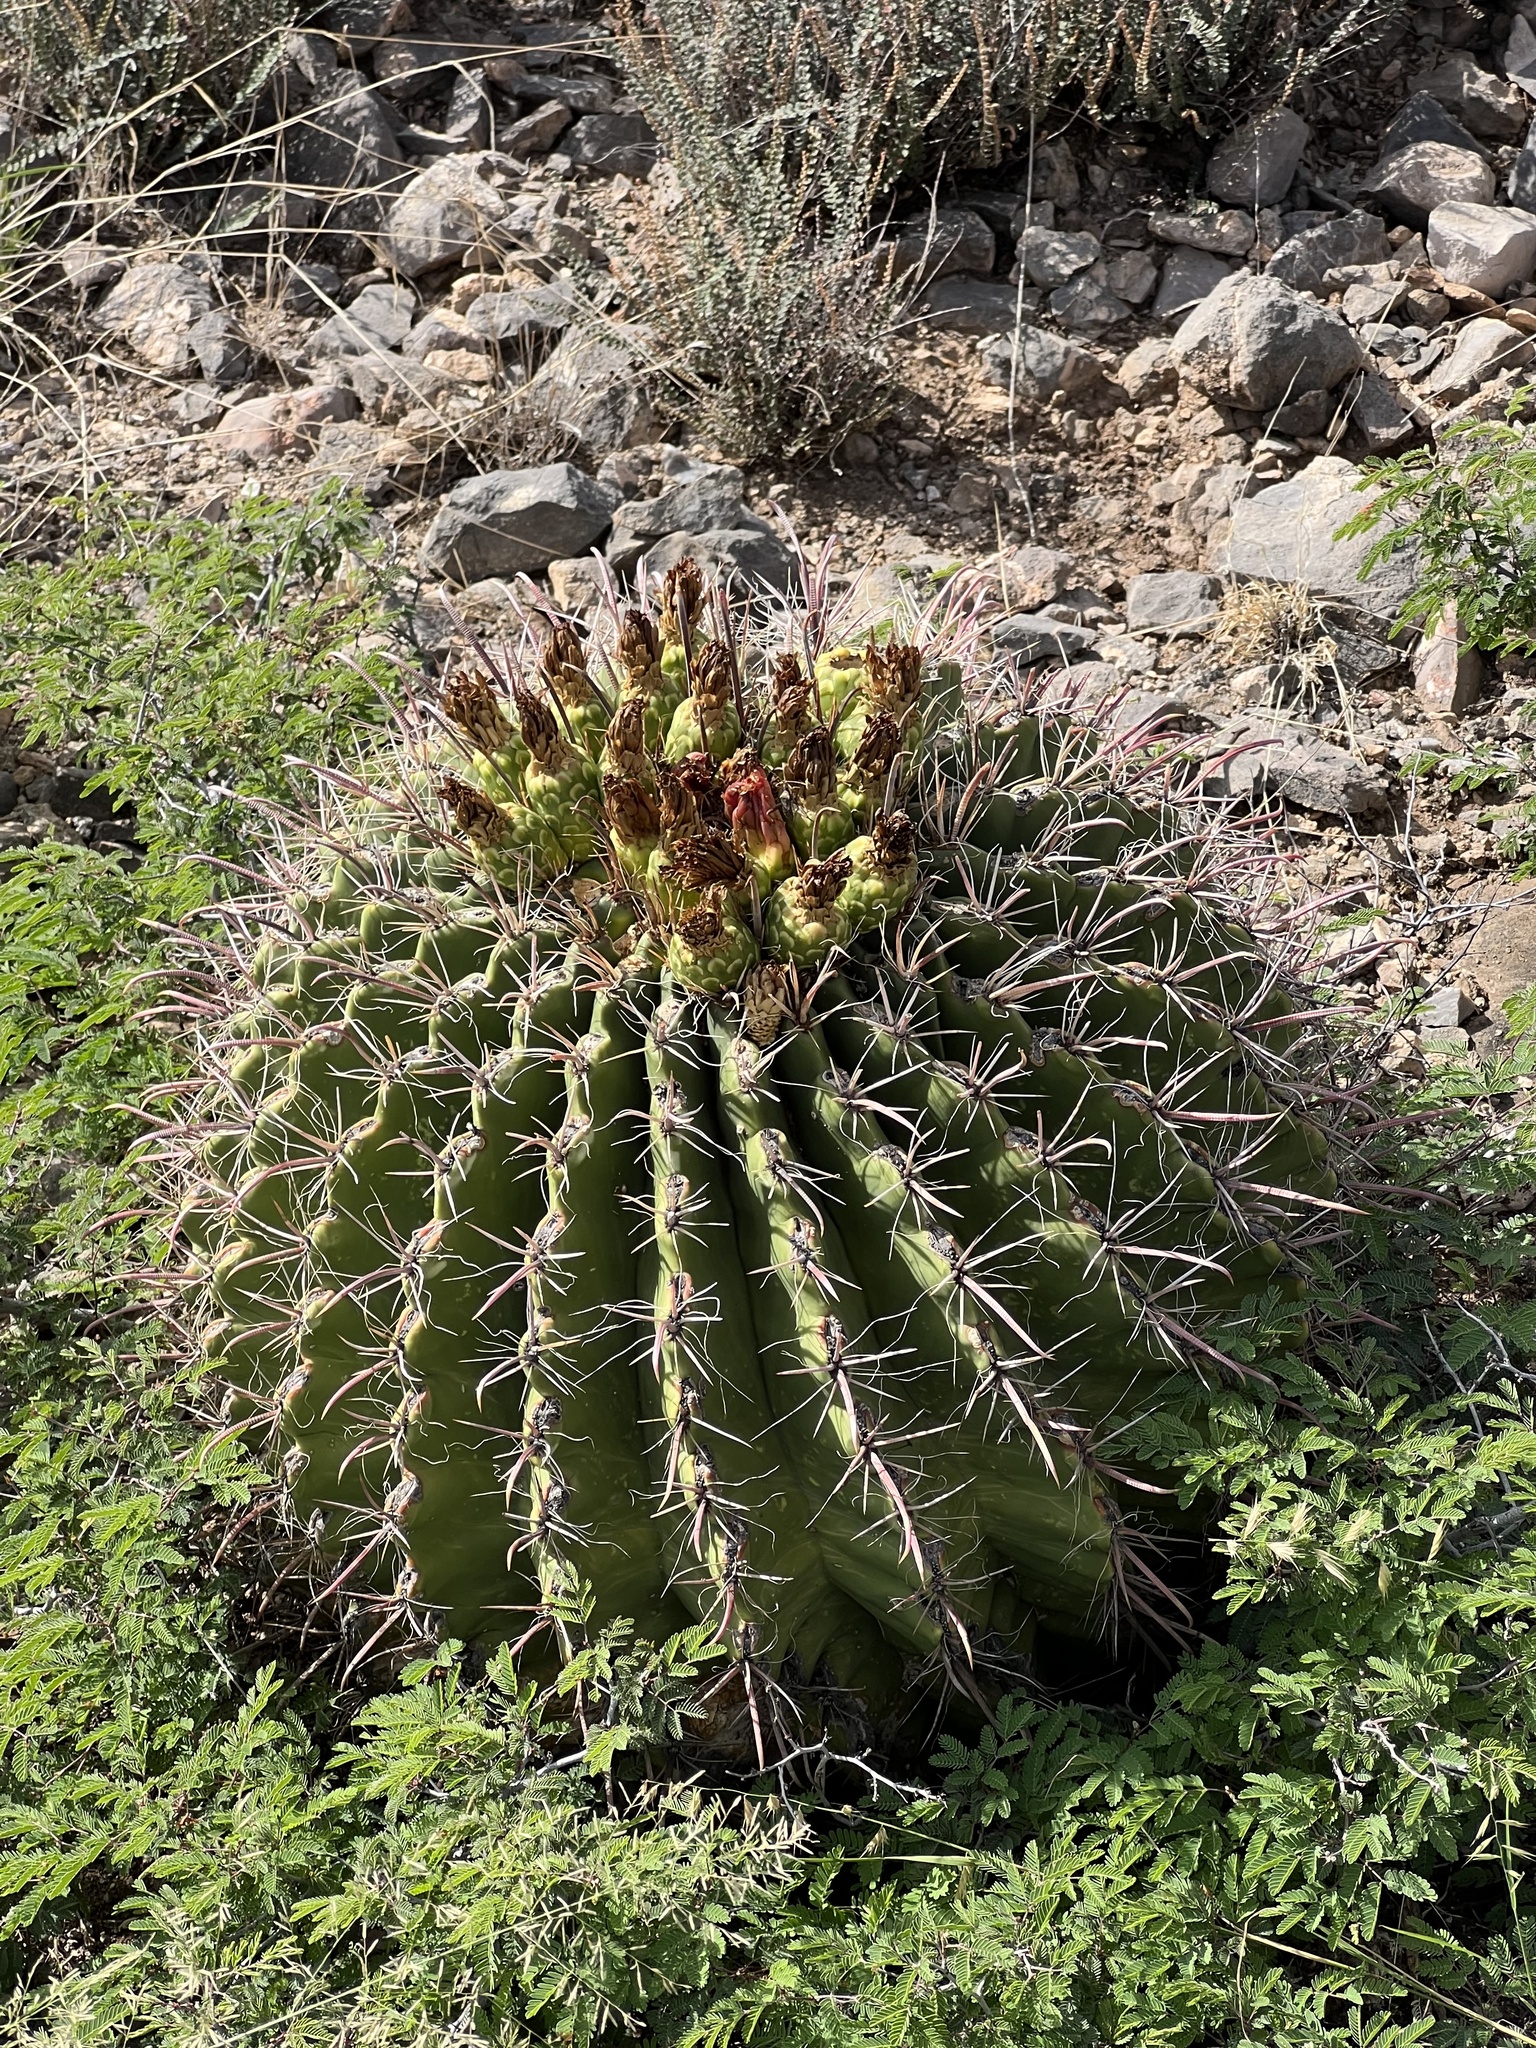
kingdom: Plantae
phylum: Tracheophyta
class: Magnoliopsida
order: Caryophyllales
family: Cactaceae
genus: Ferocactus
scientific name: Ferocactus wislizeni
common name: Candy barrel cactus
